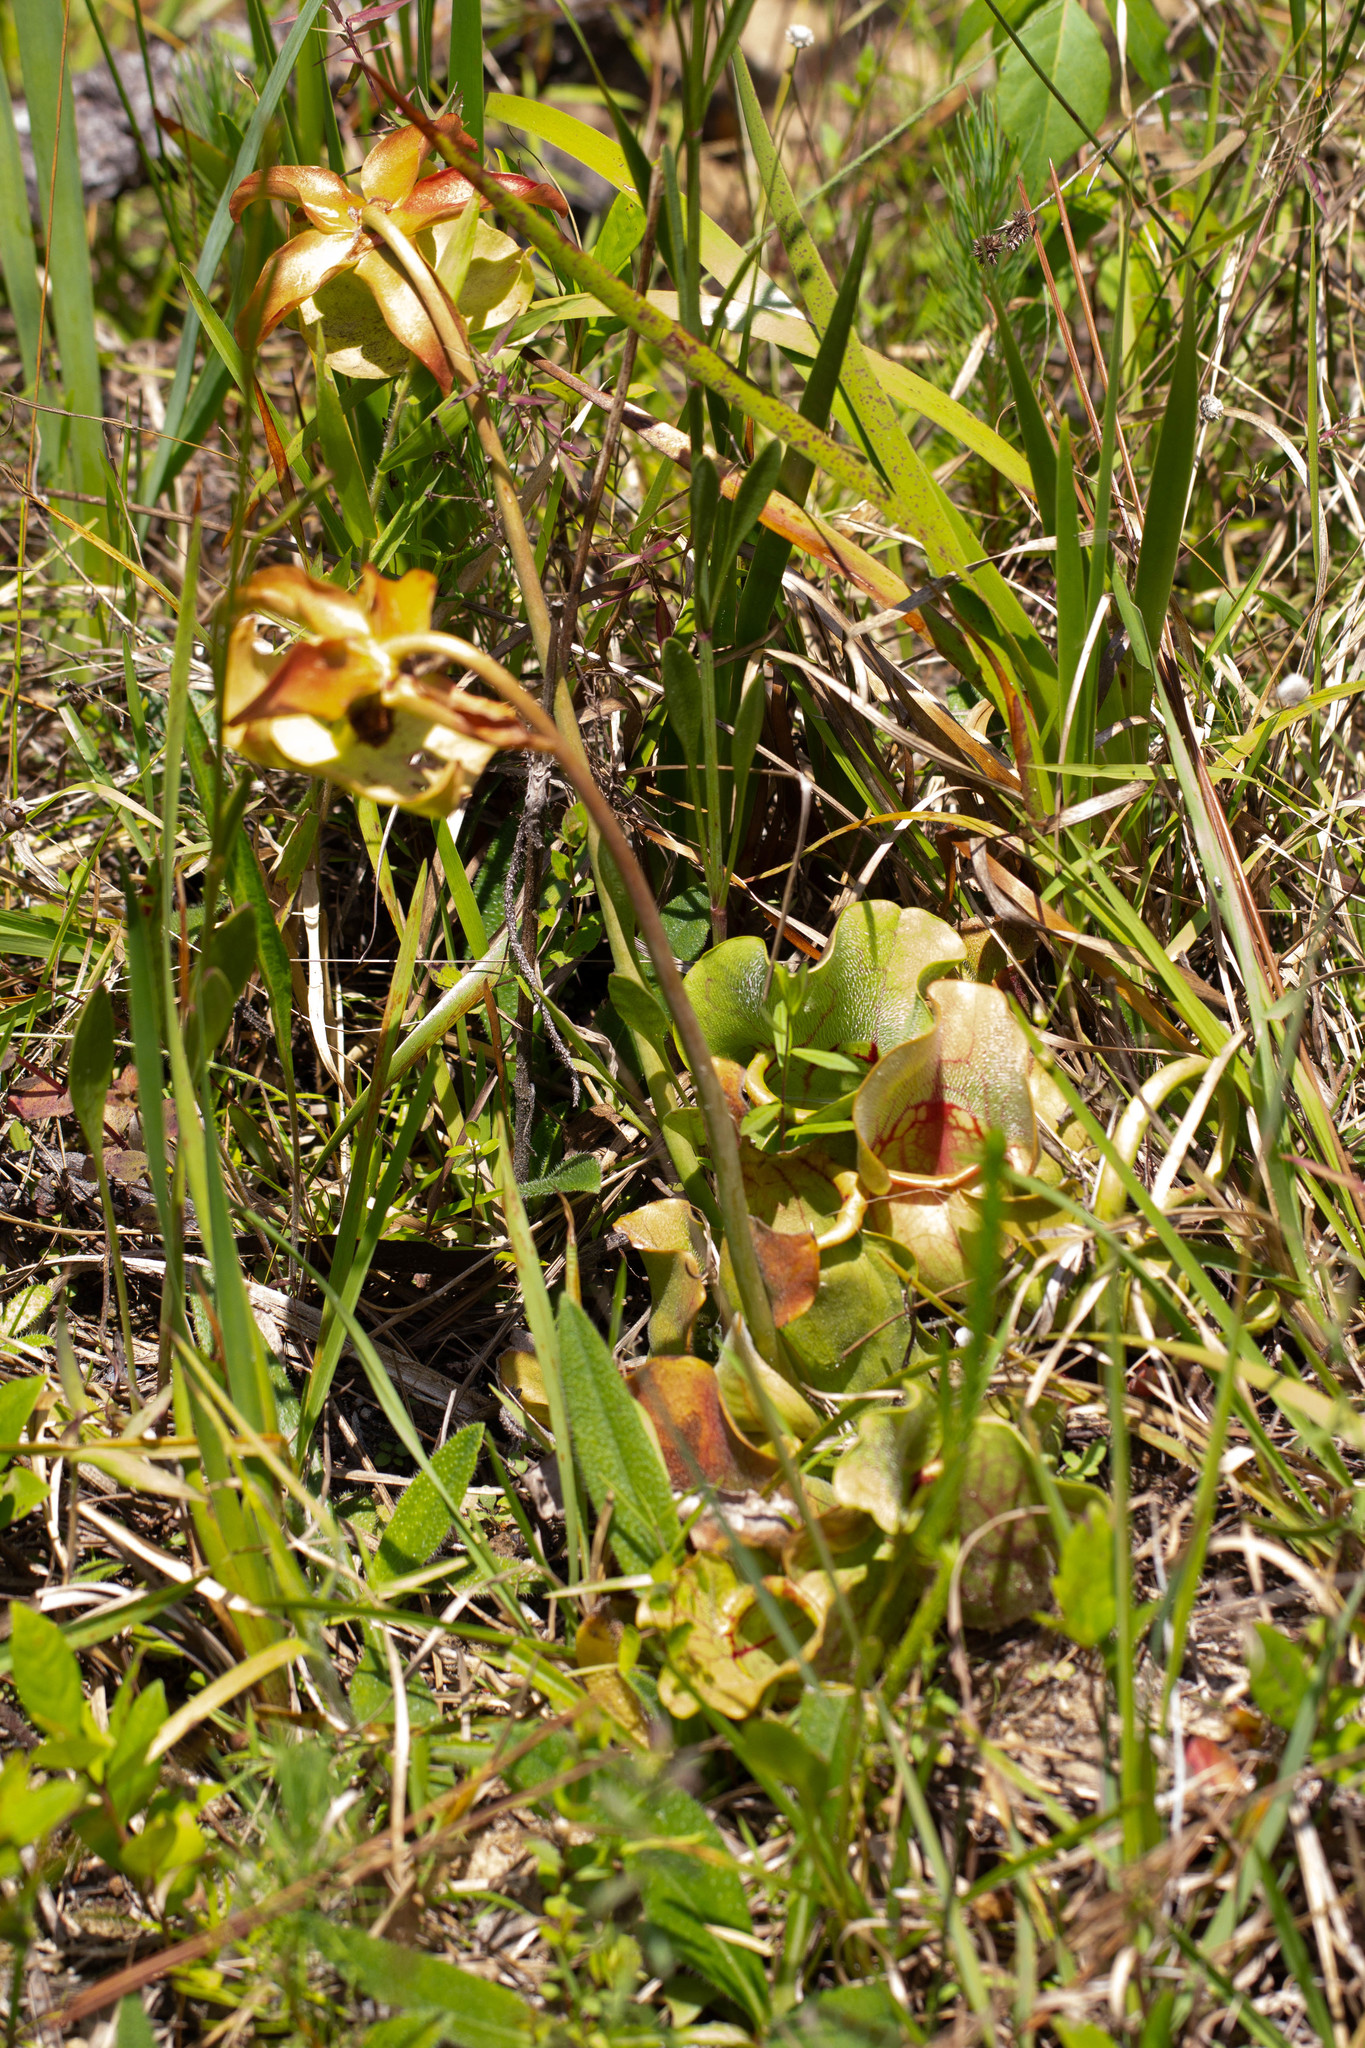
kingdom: Plantae
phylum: Tracheophyta
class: Magnoliopsida
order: Ericales
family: Sarraceniaceae
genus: Sarracenia
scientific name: Sarracenia rosea
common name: Pink pitcherplant
